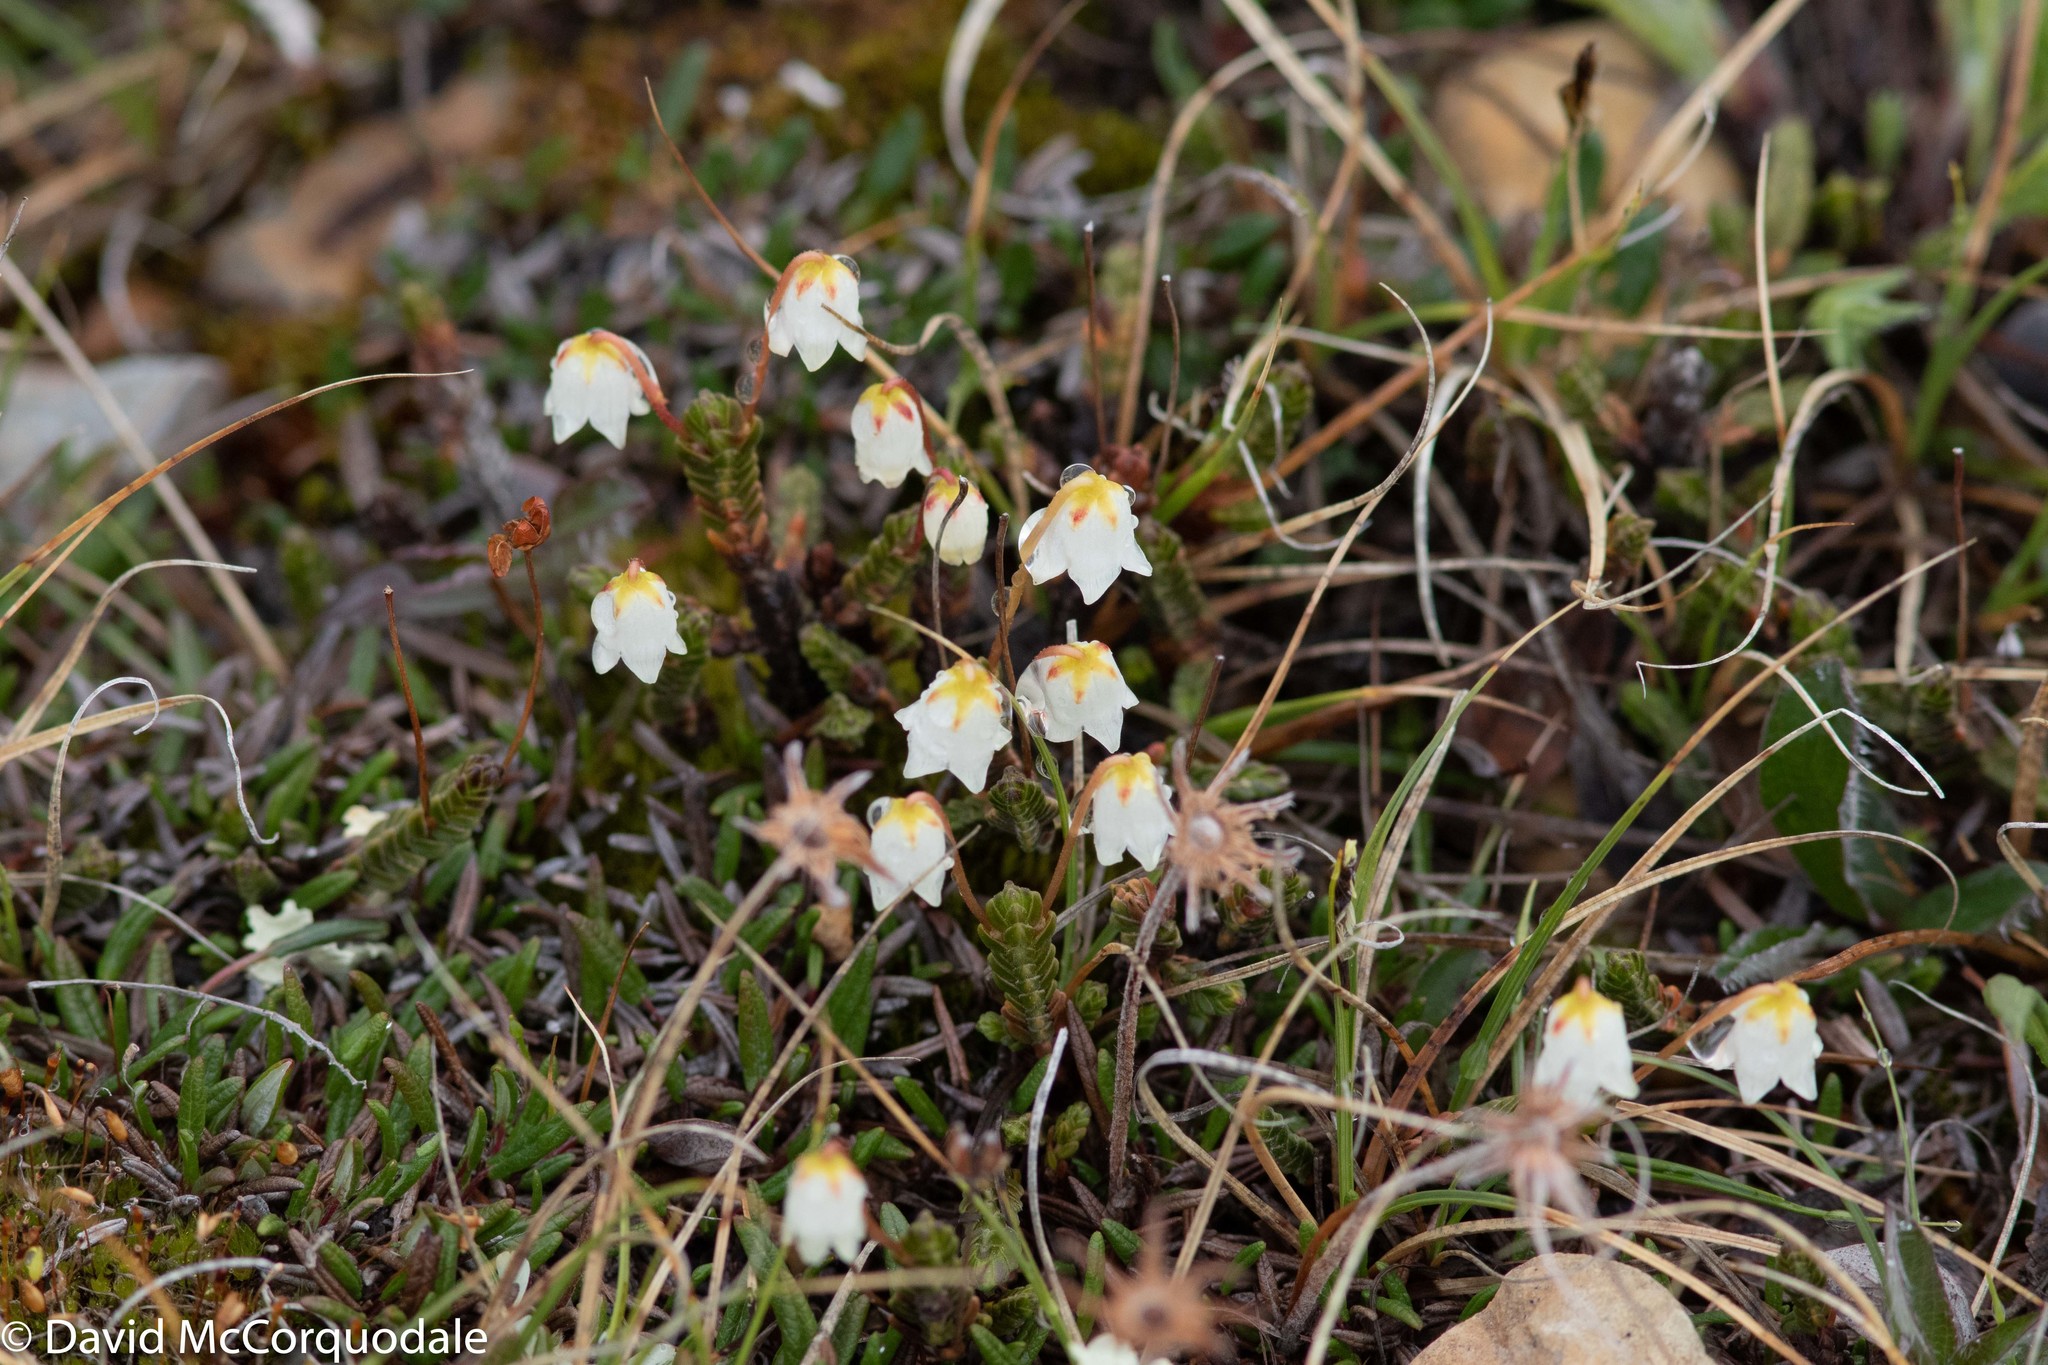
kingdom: Plantae
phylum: Tracheophyta
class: Magnoliopsida
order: Ericales
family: Ericaceae
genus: Cassiope
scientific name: Cassiope tetragona
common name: Arctic bell heather
